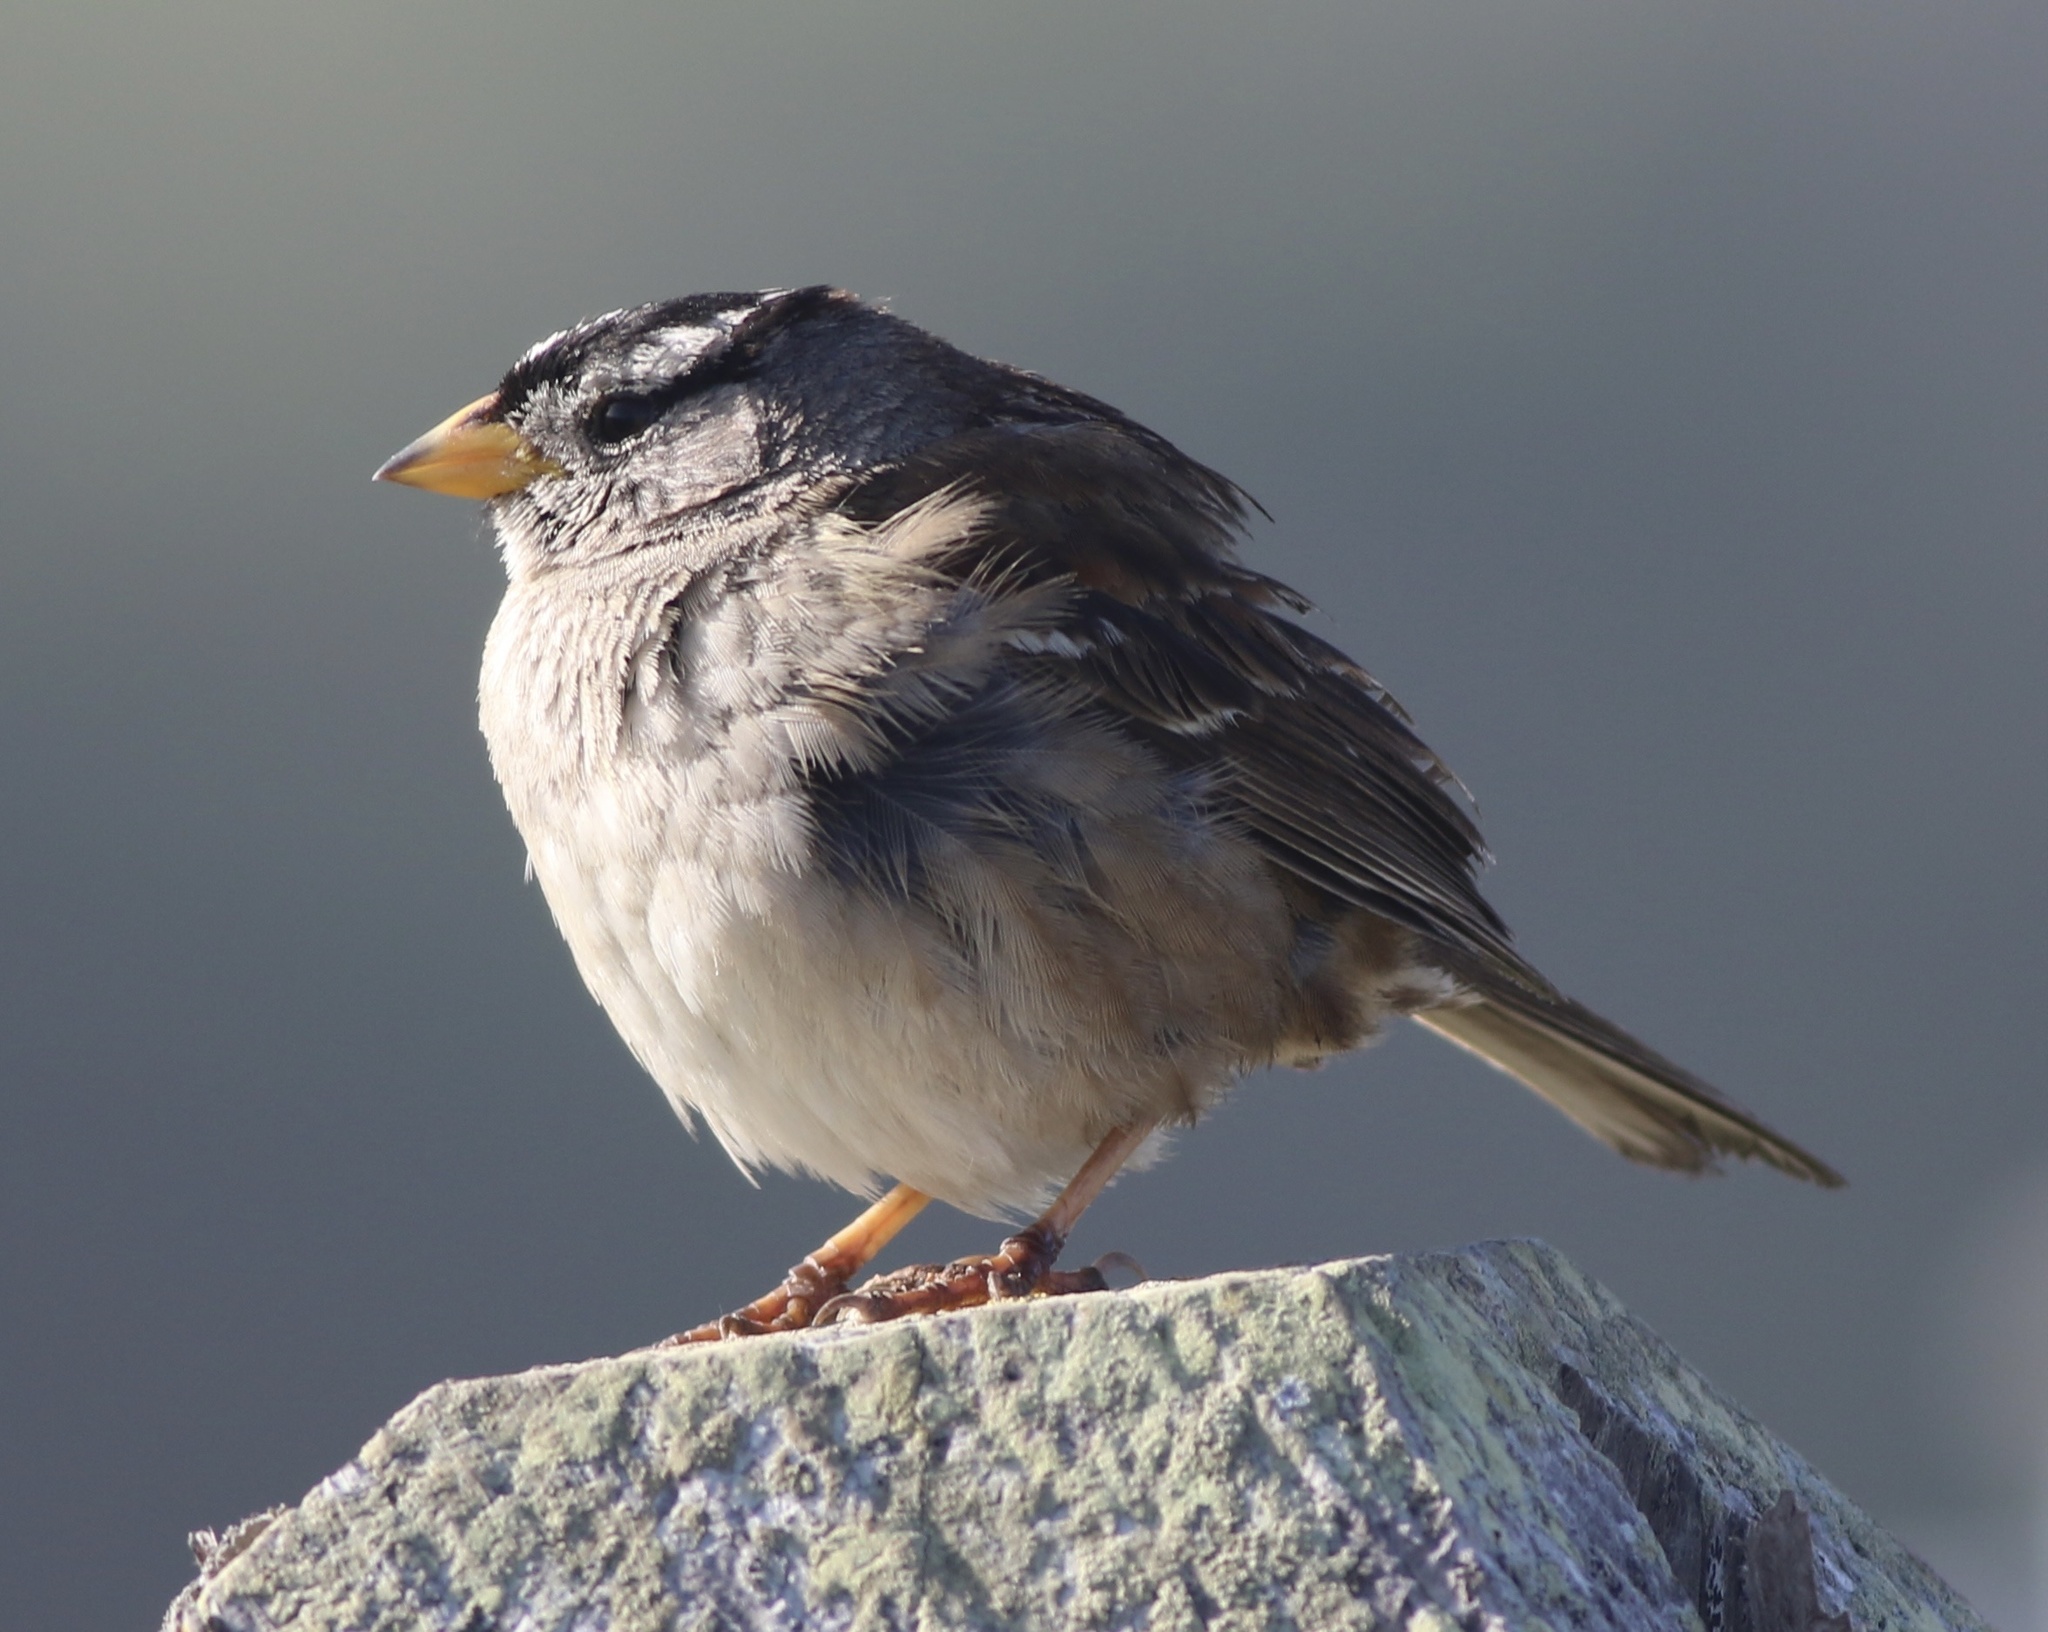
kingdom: Animalia
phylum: Chordata
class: Aves
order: Passeriformes
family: Passerellidae
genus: Zonotrichia
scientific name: Zonotrichia leucophrys
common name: White-crowned sparrow
